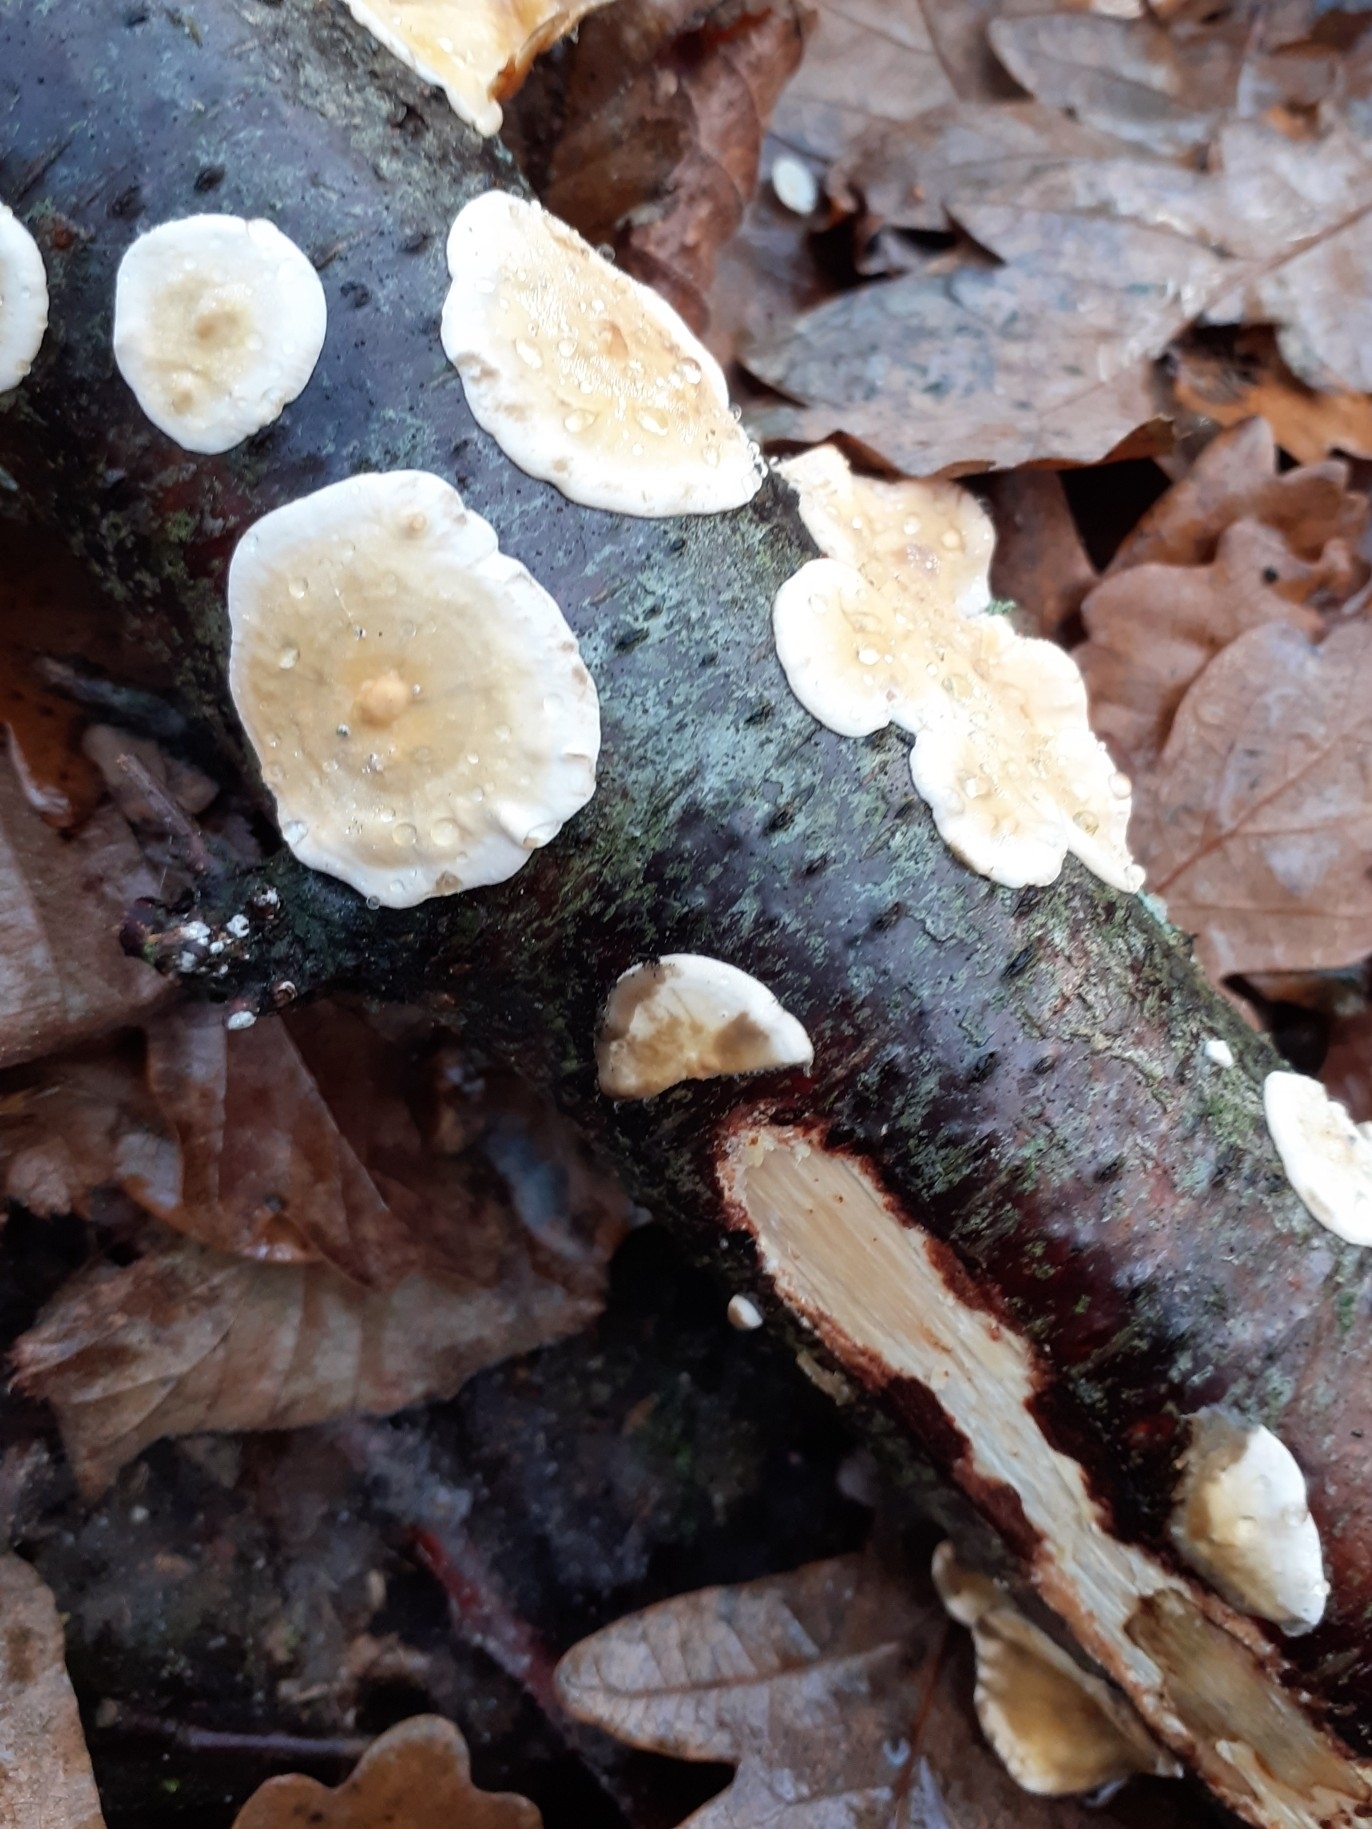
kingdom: Fungi
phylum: Basidiomycota
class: Agaricomycetes
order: Russulales
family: Stereaceae
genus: Stereum
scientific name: Stereum hirsutum
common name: Hairy curtain crust
